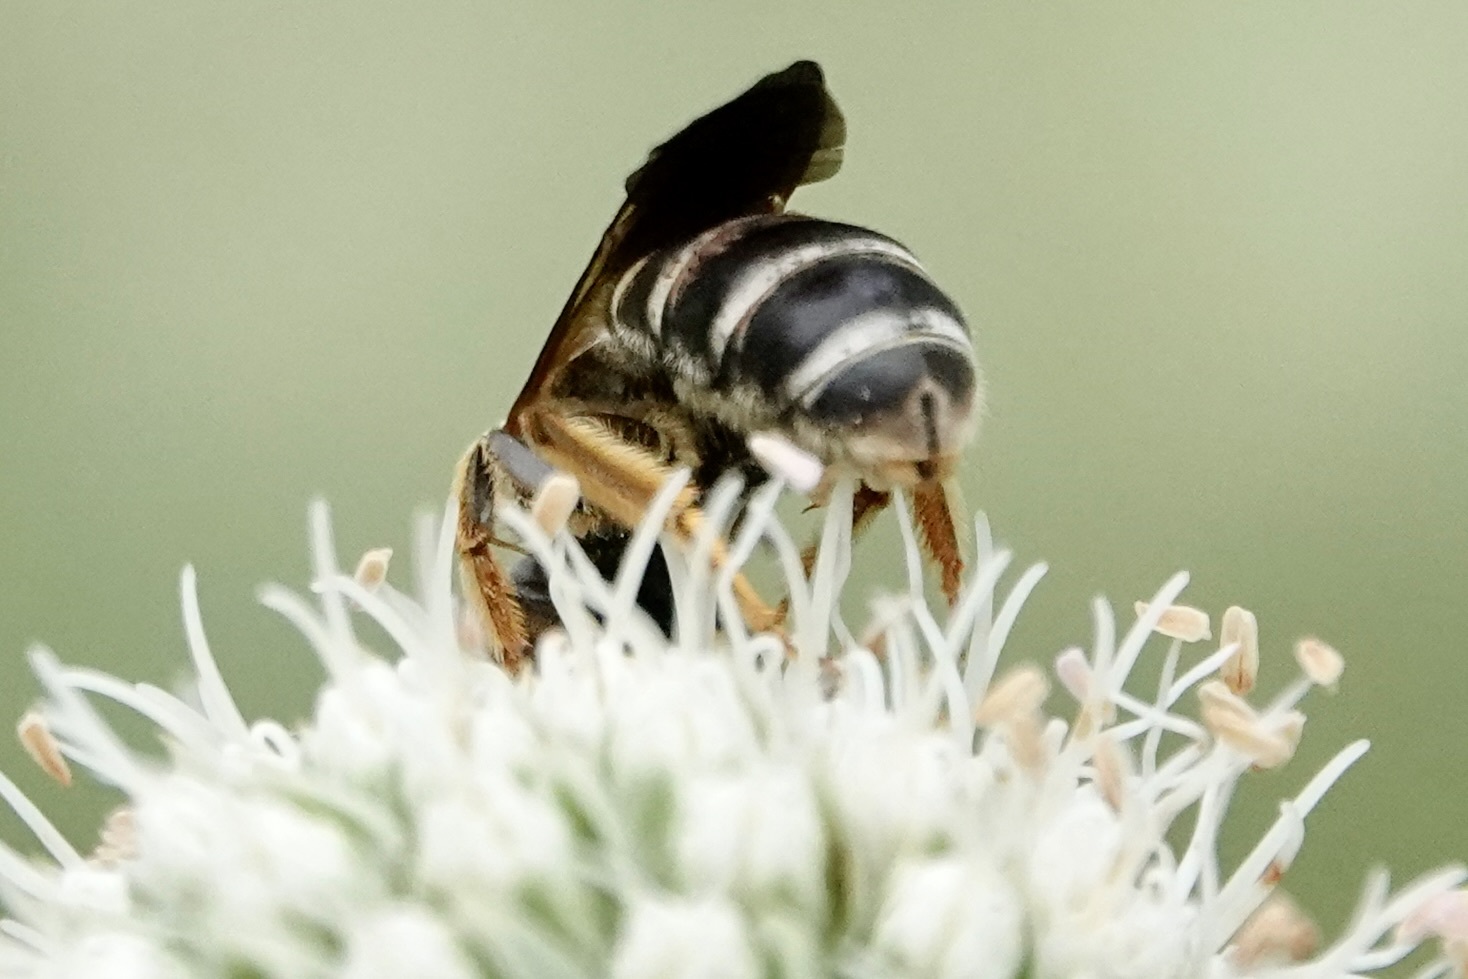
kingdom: Animalia
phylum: Arthropoda
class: Insecta
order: Hymenoptera
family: Halictidae
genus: Halictus
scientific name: Halictus parallelus
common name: Parallel-striped sweat bee
